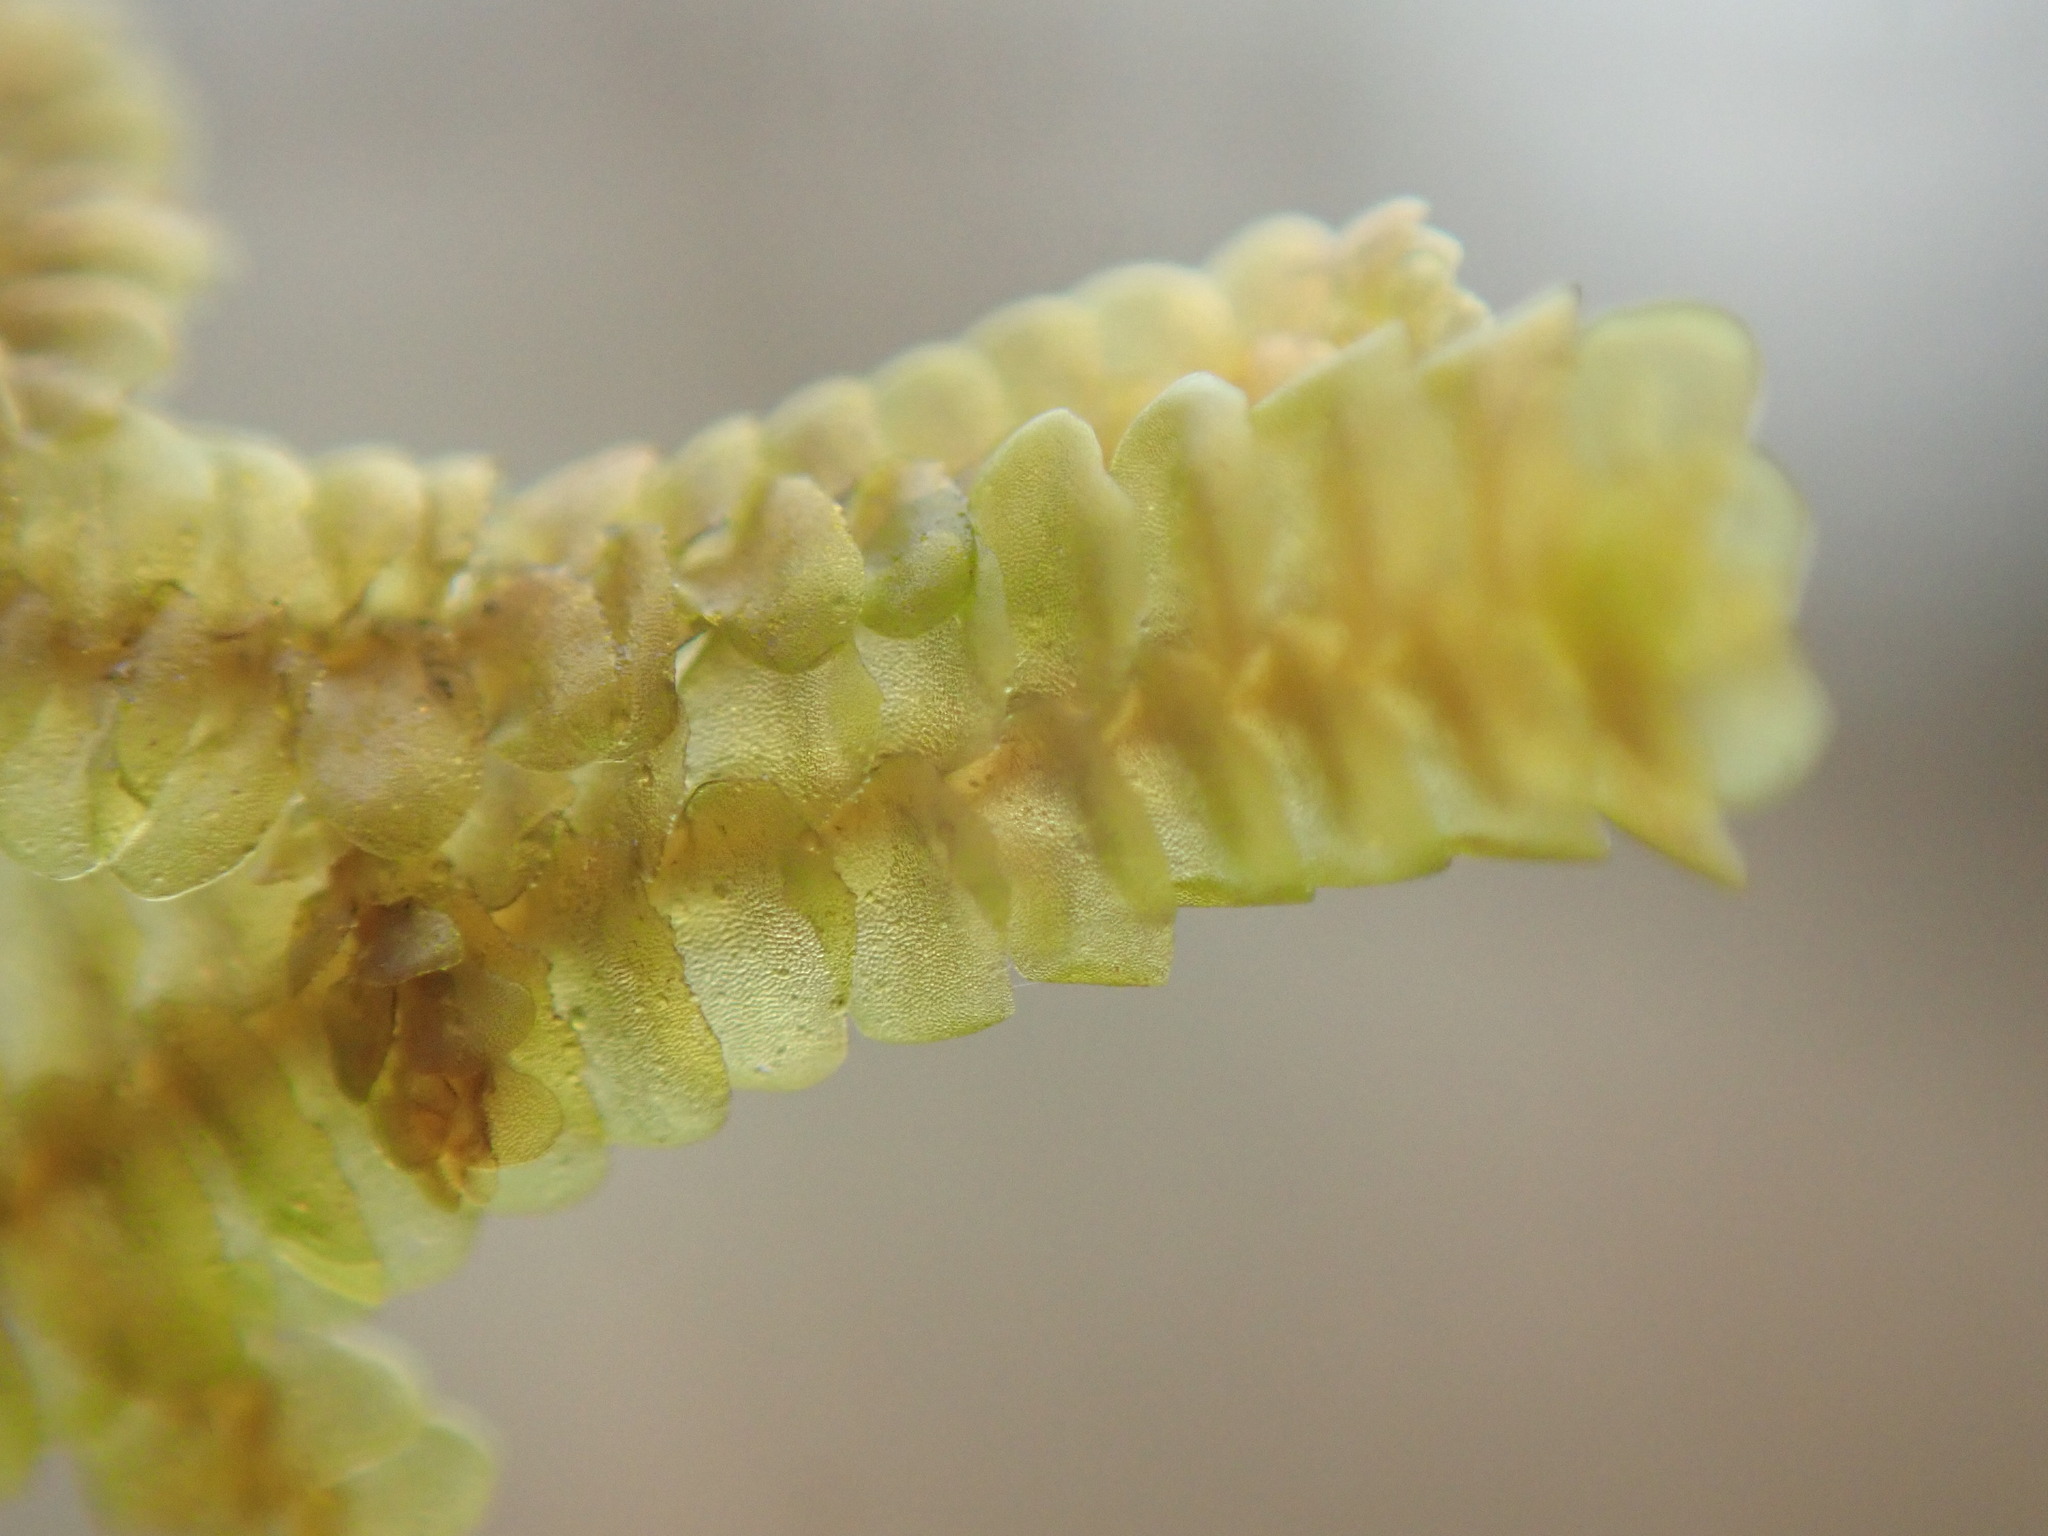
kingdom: Plantae
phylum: Marchantiophyta
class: Jungermanniopsida
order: Porellales
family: Porellaceae
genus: Porella
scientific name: Porella navicularis
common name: Tree ruffle liverwort
